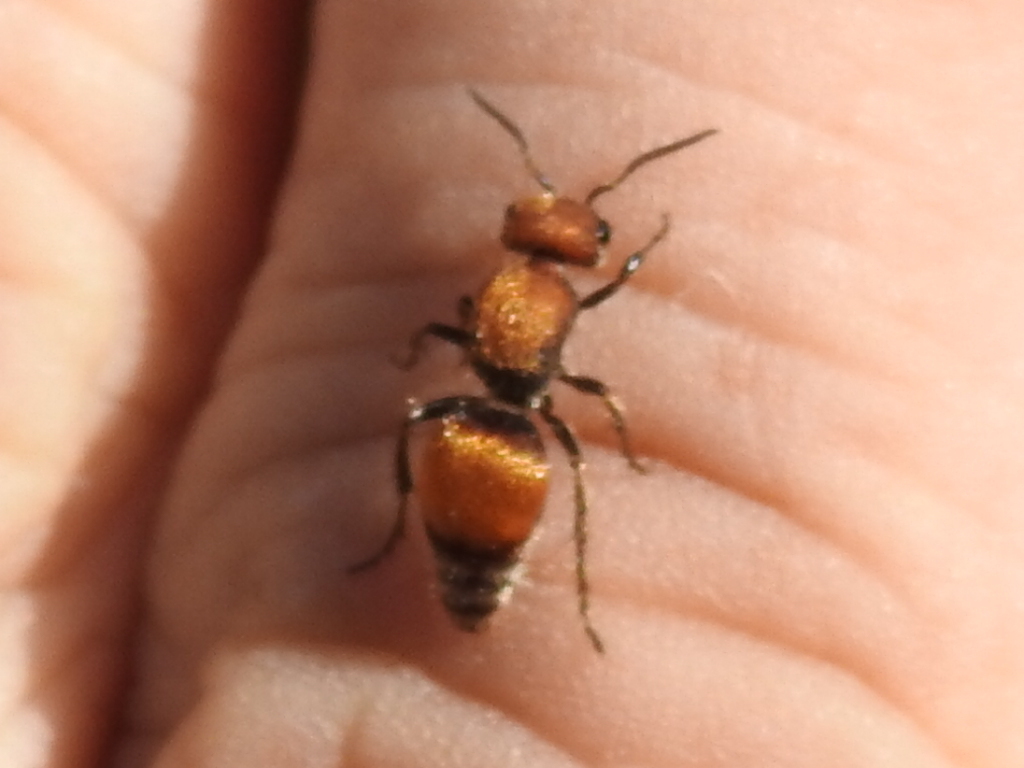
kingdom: Animalia
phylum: Arthropoda
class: Insecta
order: Hymenoptera
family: Mutillidae
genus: Pseudomethoca
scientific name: Pseudomethoca
